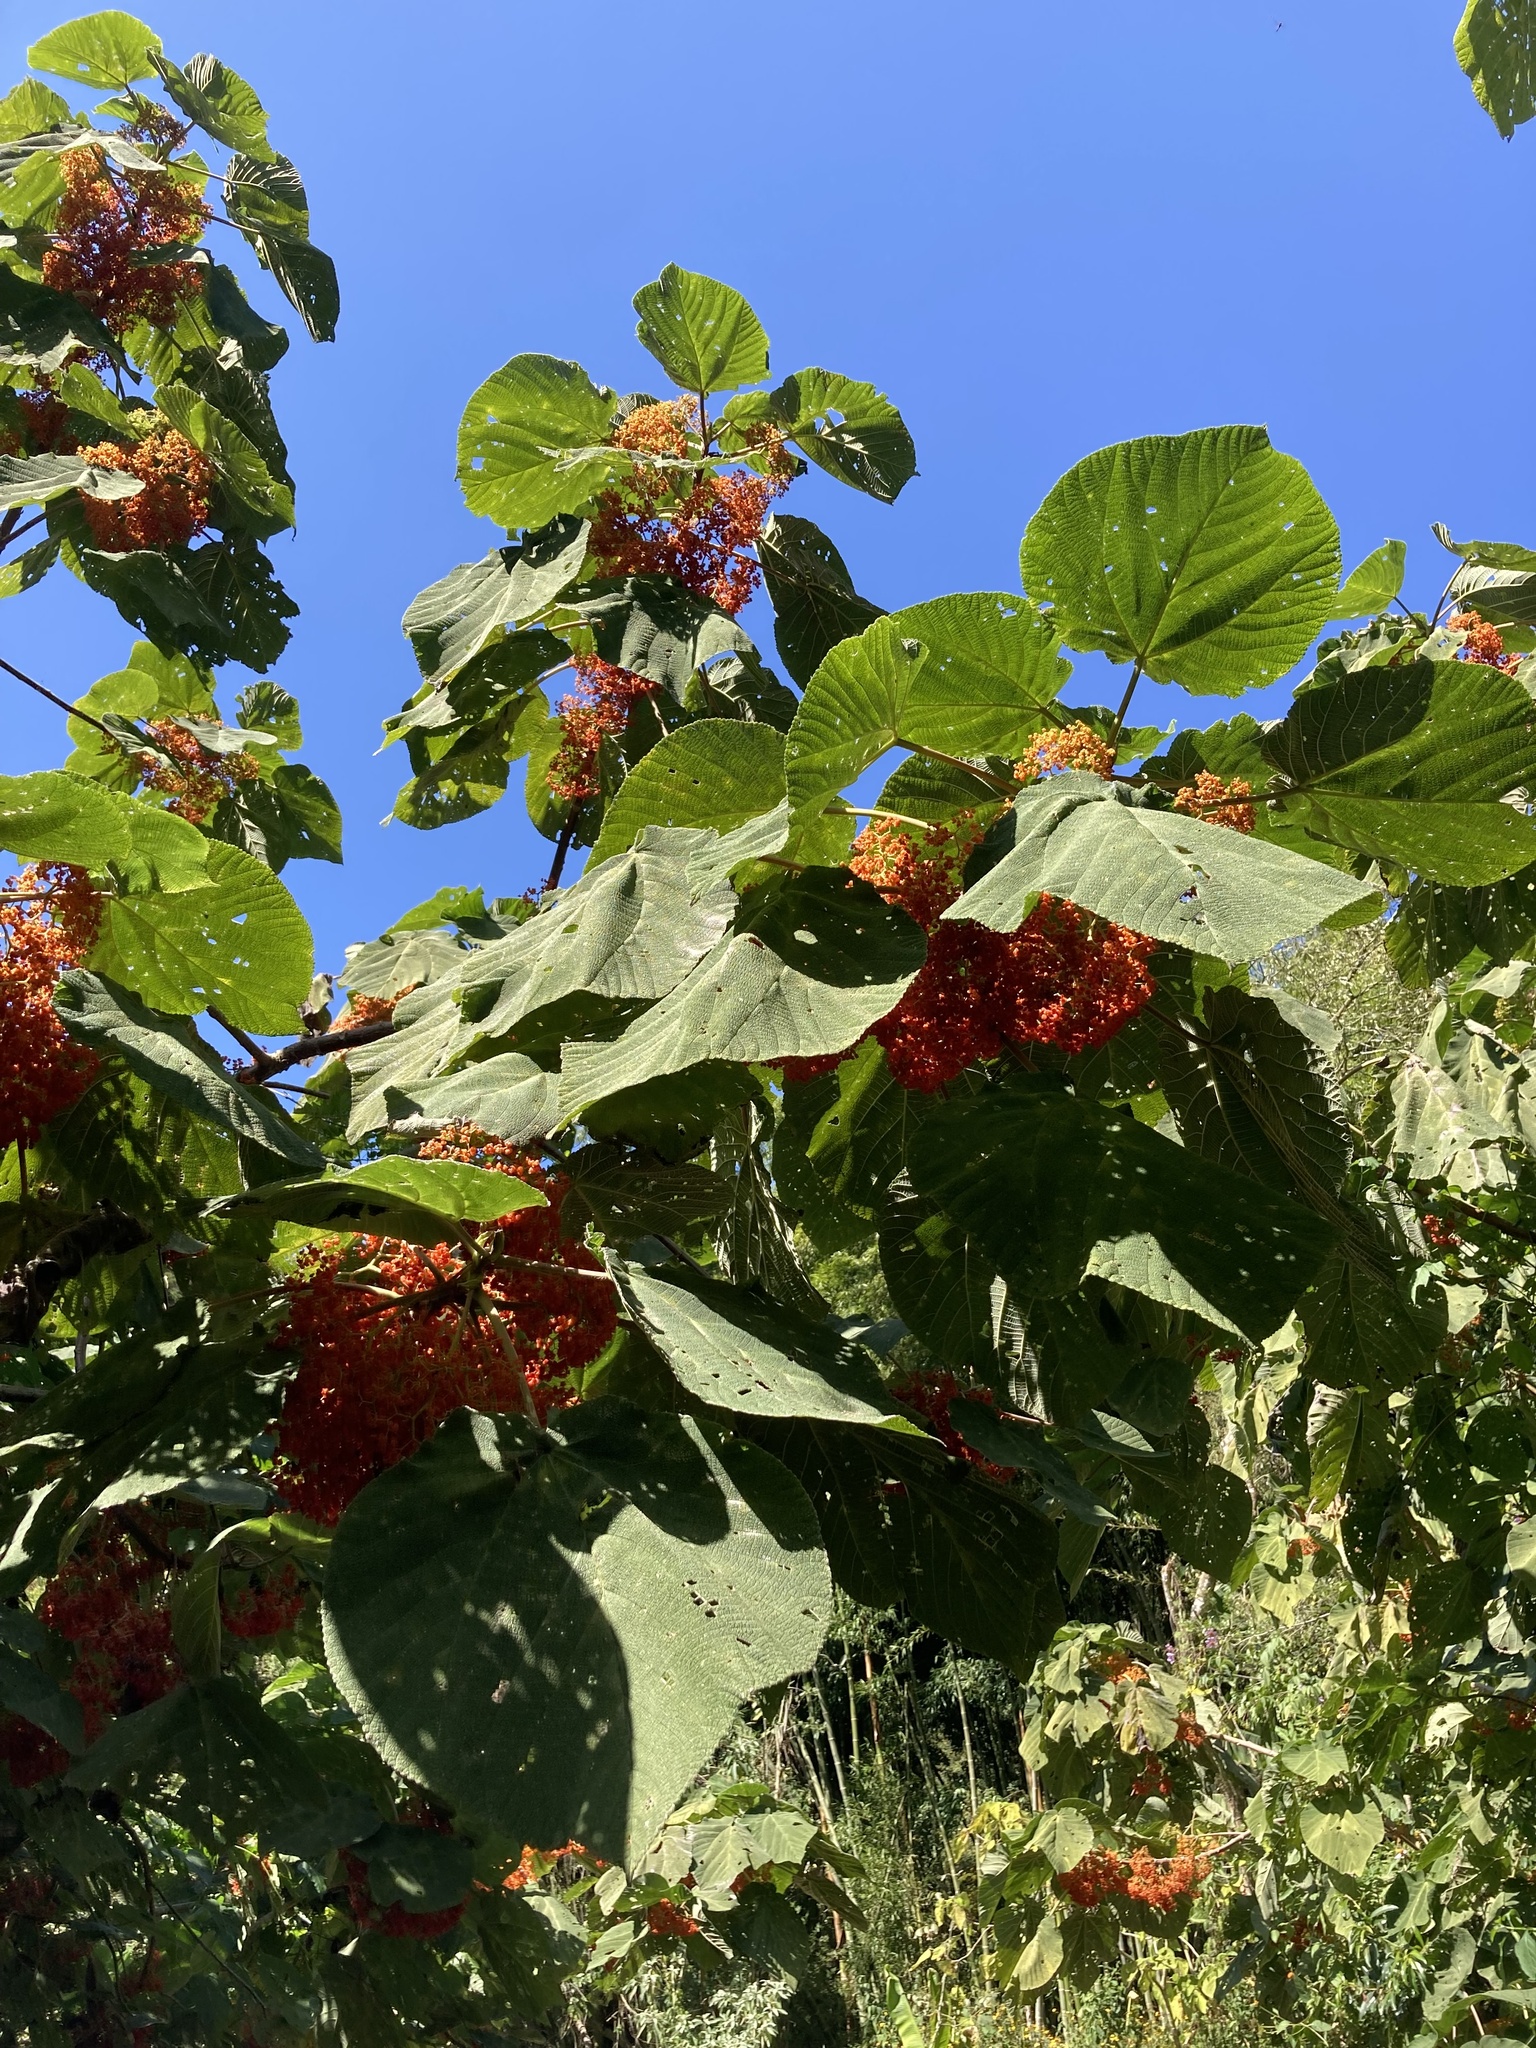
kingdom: Plantae
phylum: Tracheophyta
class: Magnoliopsida
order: Rosales
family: Urticaceae
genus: Urera
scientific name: Urera caracasana
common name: Flameberry
